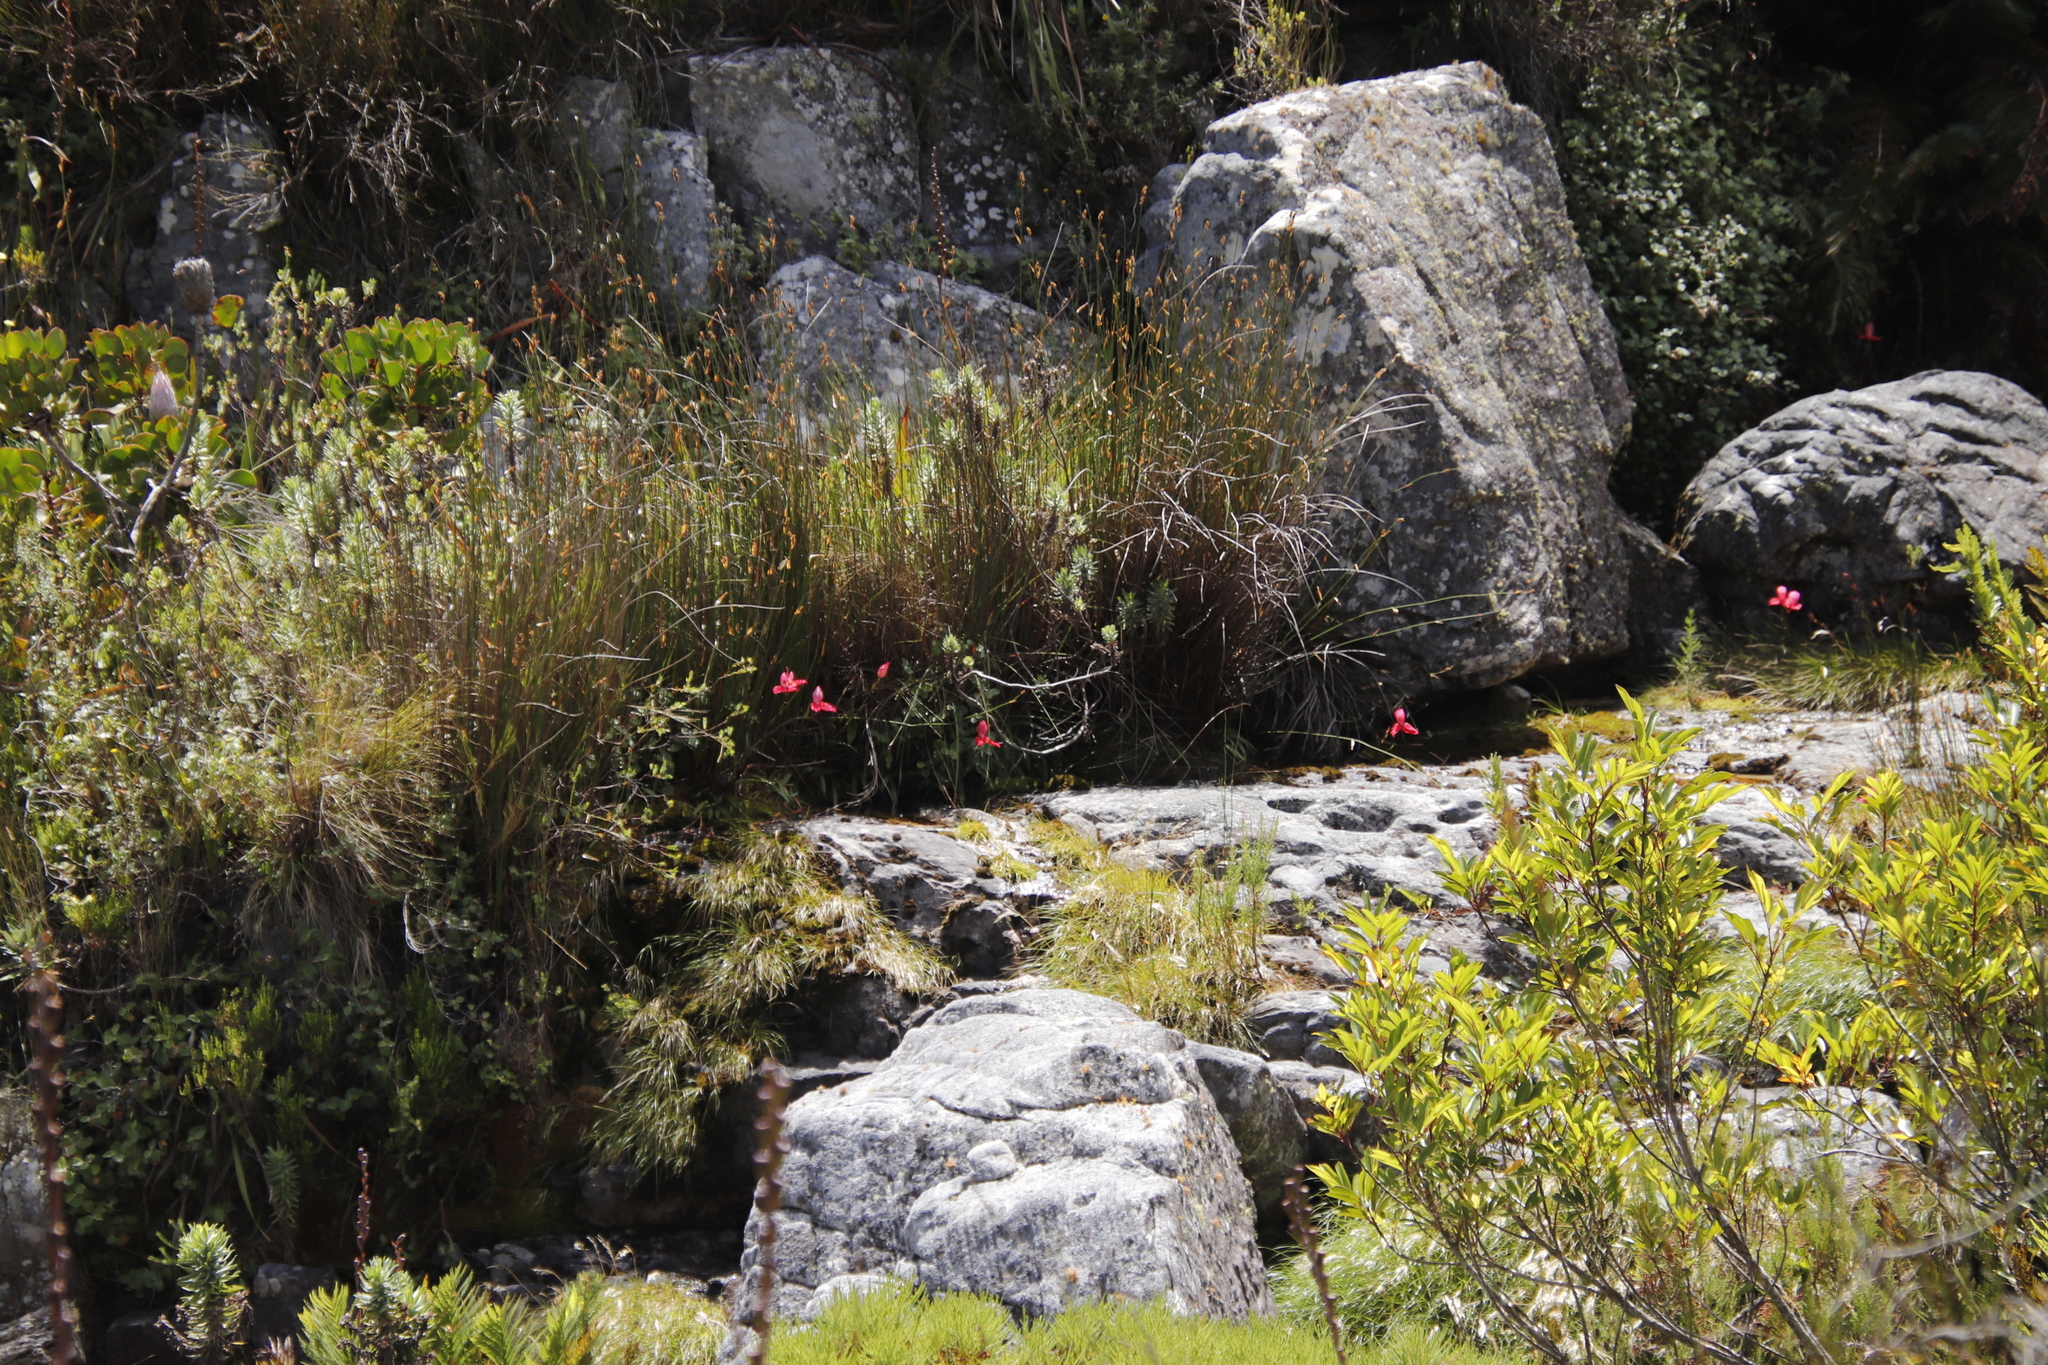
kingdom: Plantae
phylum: Tracheophyta
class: Liliopsida
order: Asparagales
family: Orchidaceae
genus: Disa
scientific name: Disa uniflora
